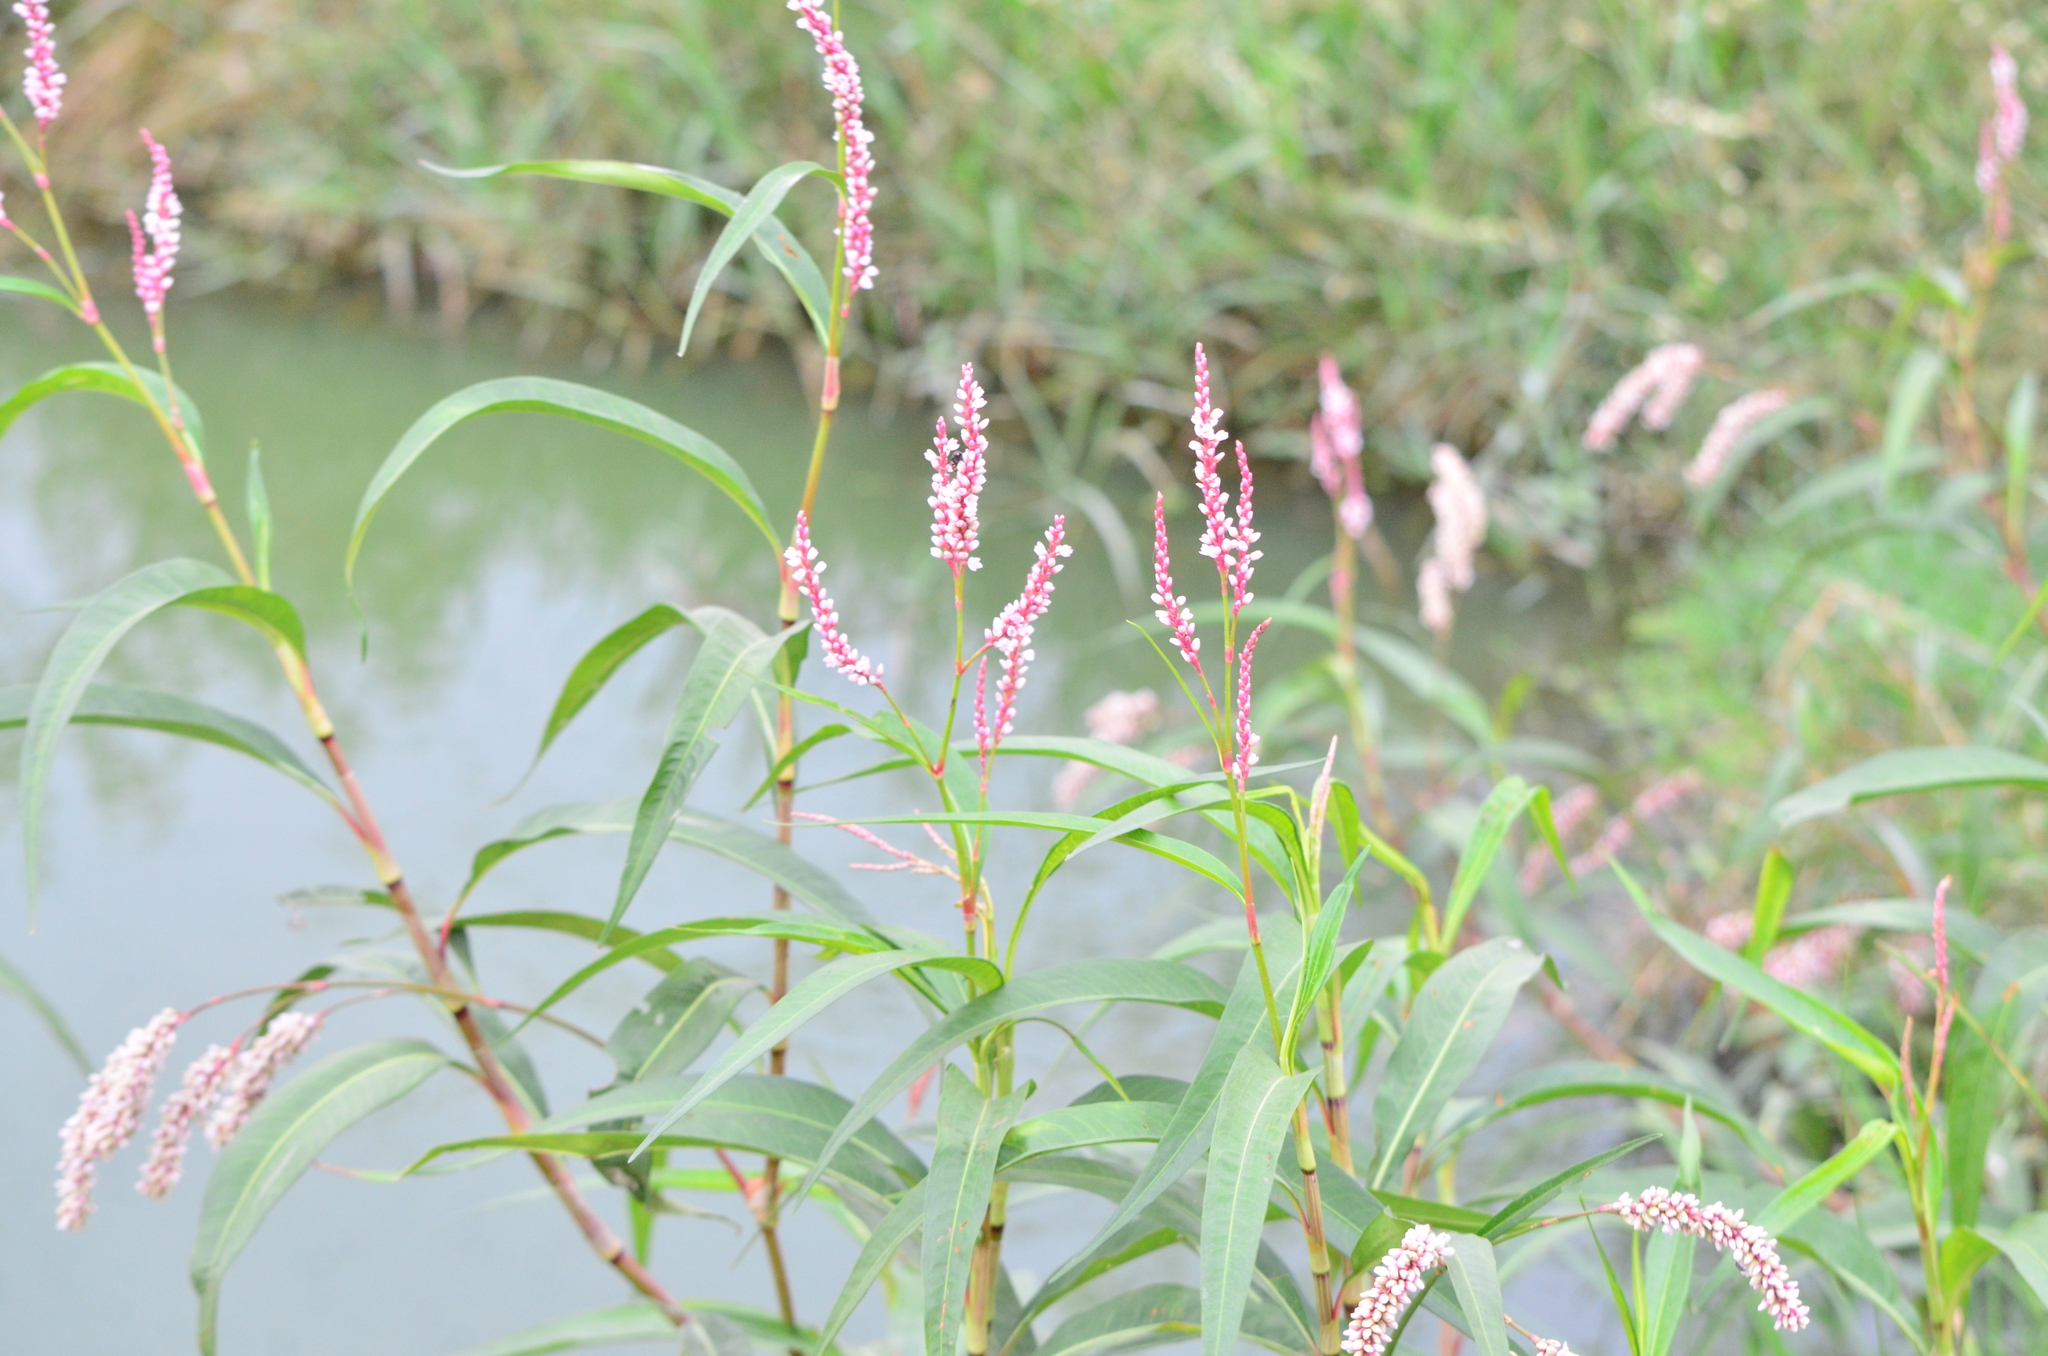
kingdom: Plantae
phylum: Tracheophyta
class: Magnoliopsida
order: Caryophyllales
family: Polygonaceae
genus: Persicaria
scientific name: Persicaria decipiens
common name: Willow-weed
